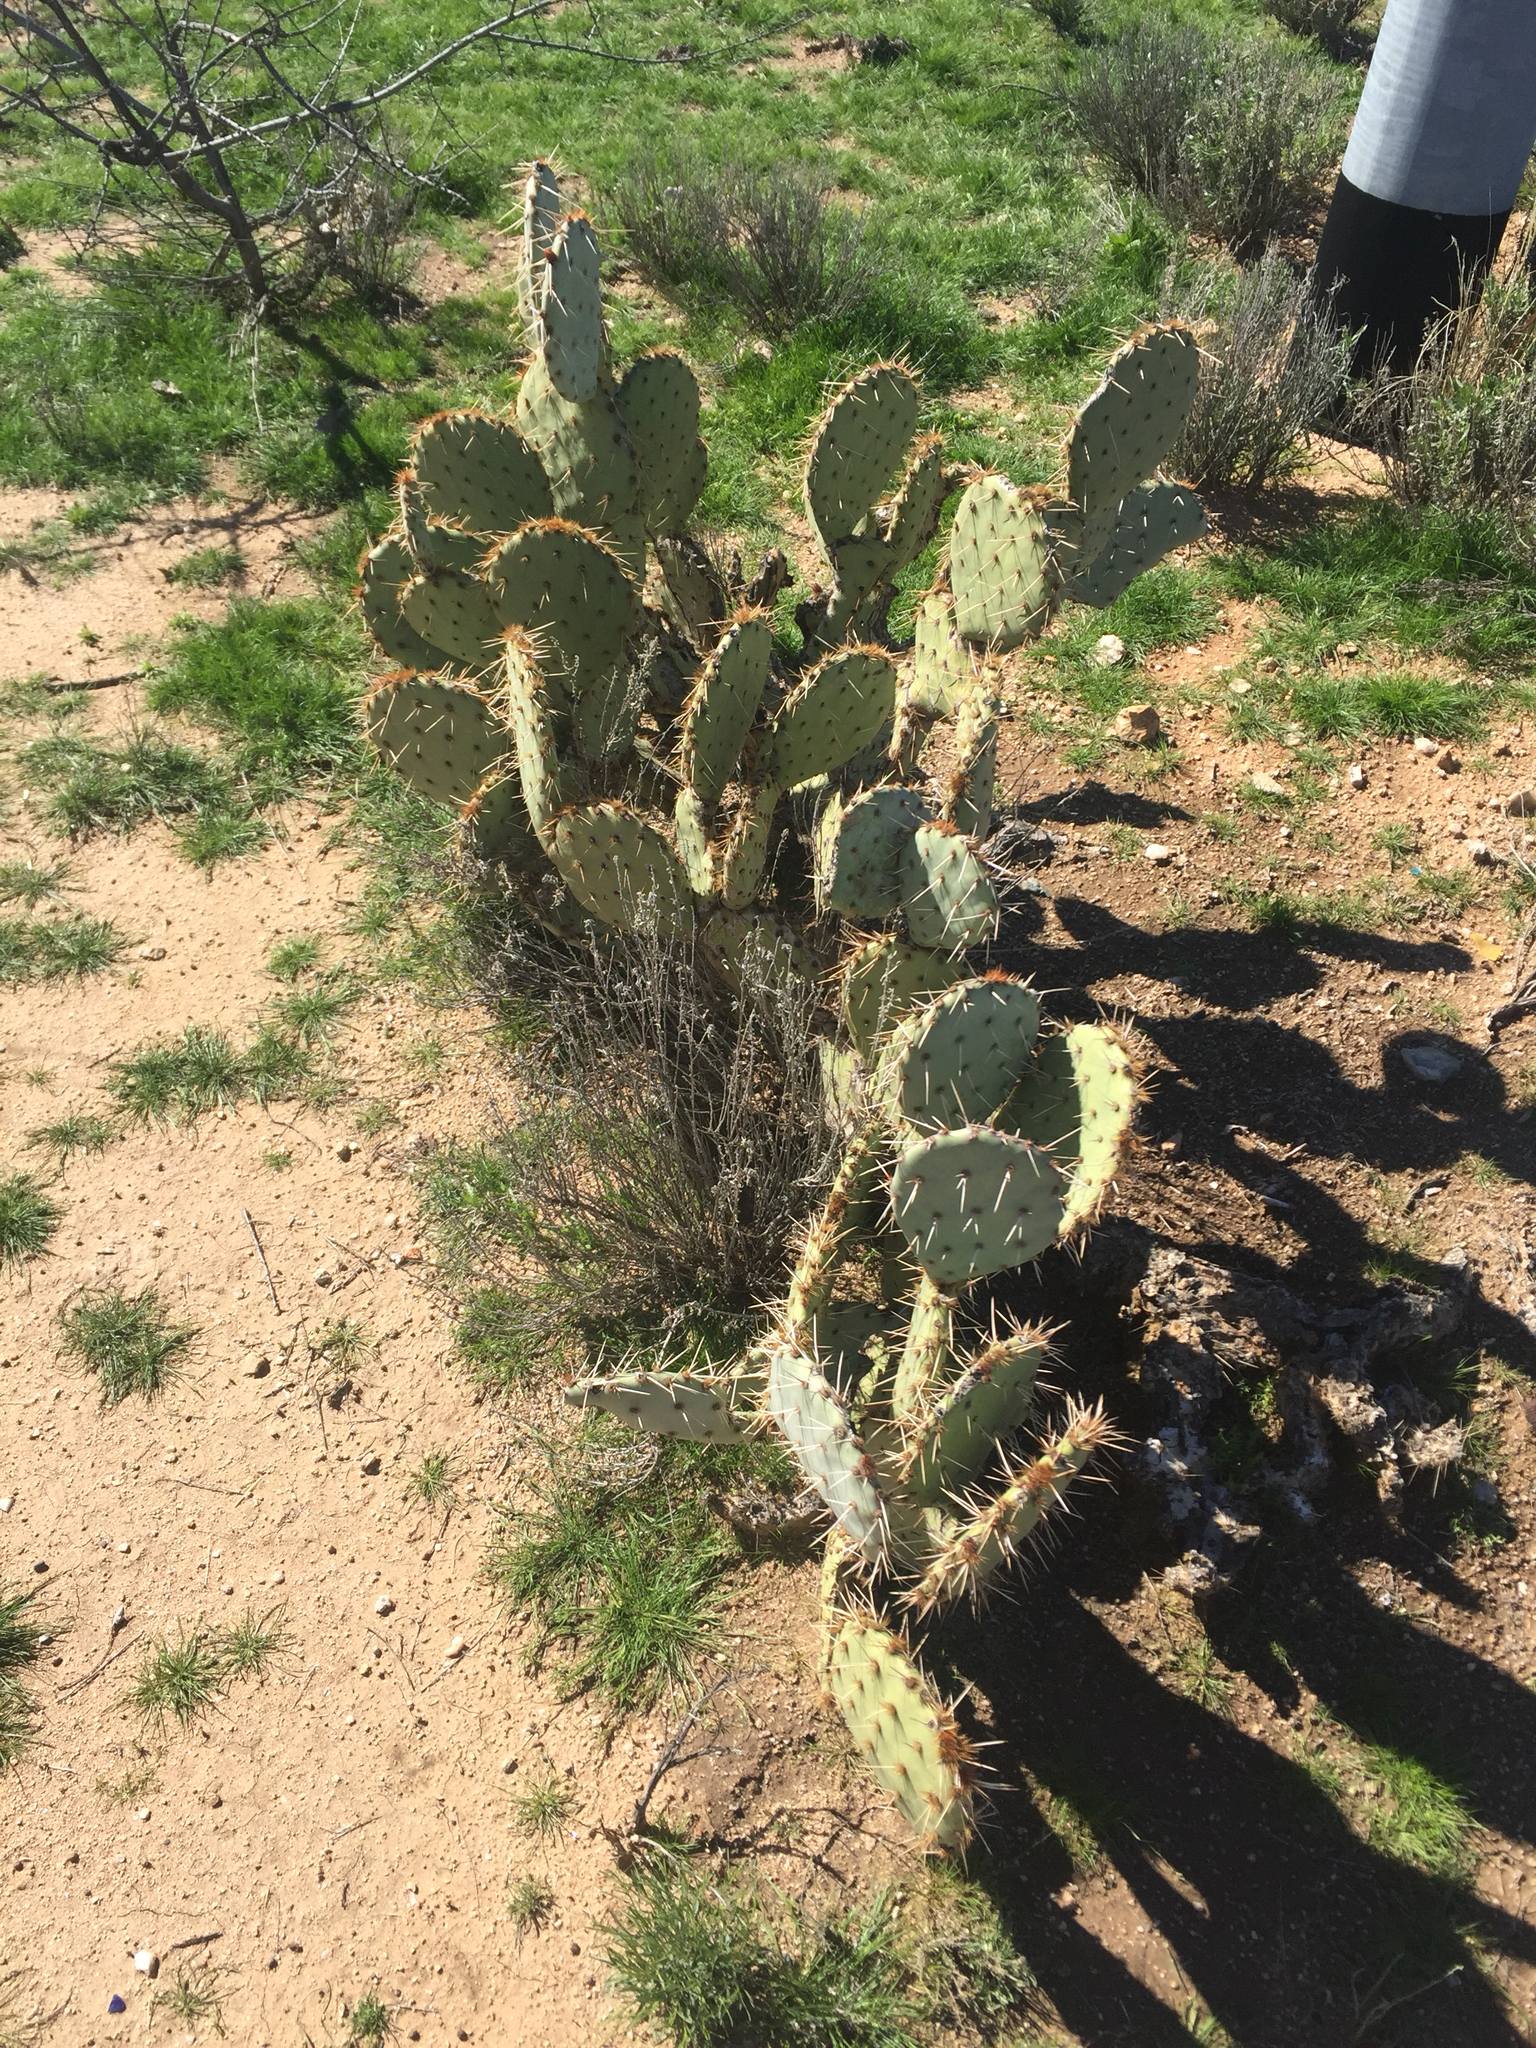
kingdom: Plantae
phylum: Tracheophyta
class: Magnoliopsida
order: Caryophyllales
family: Cactaceae
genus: Opuntia
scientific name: Opuntia engelmannii
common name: Cactus-apple
